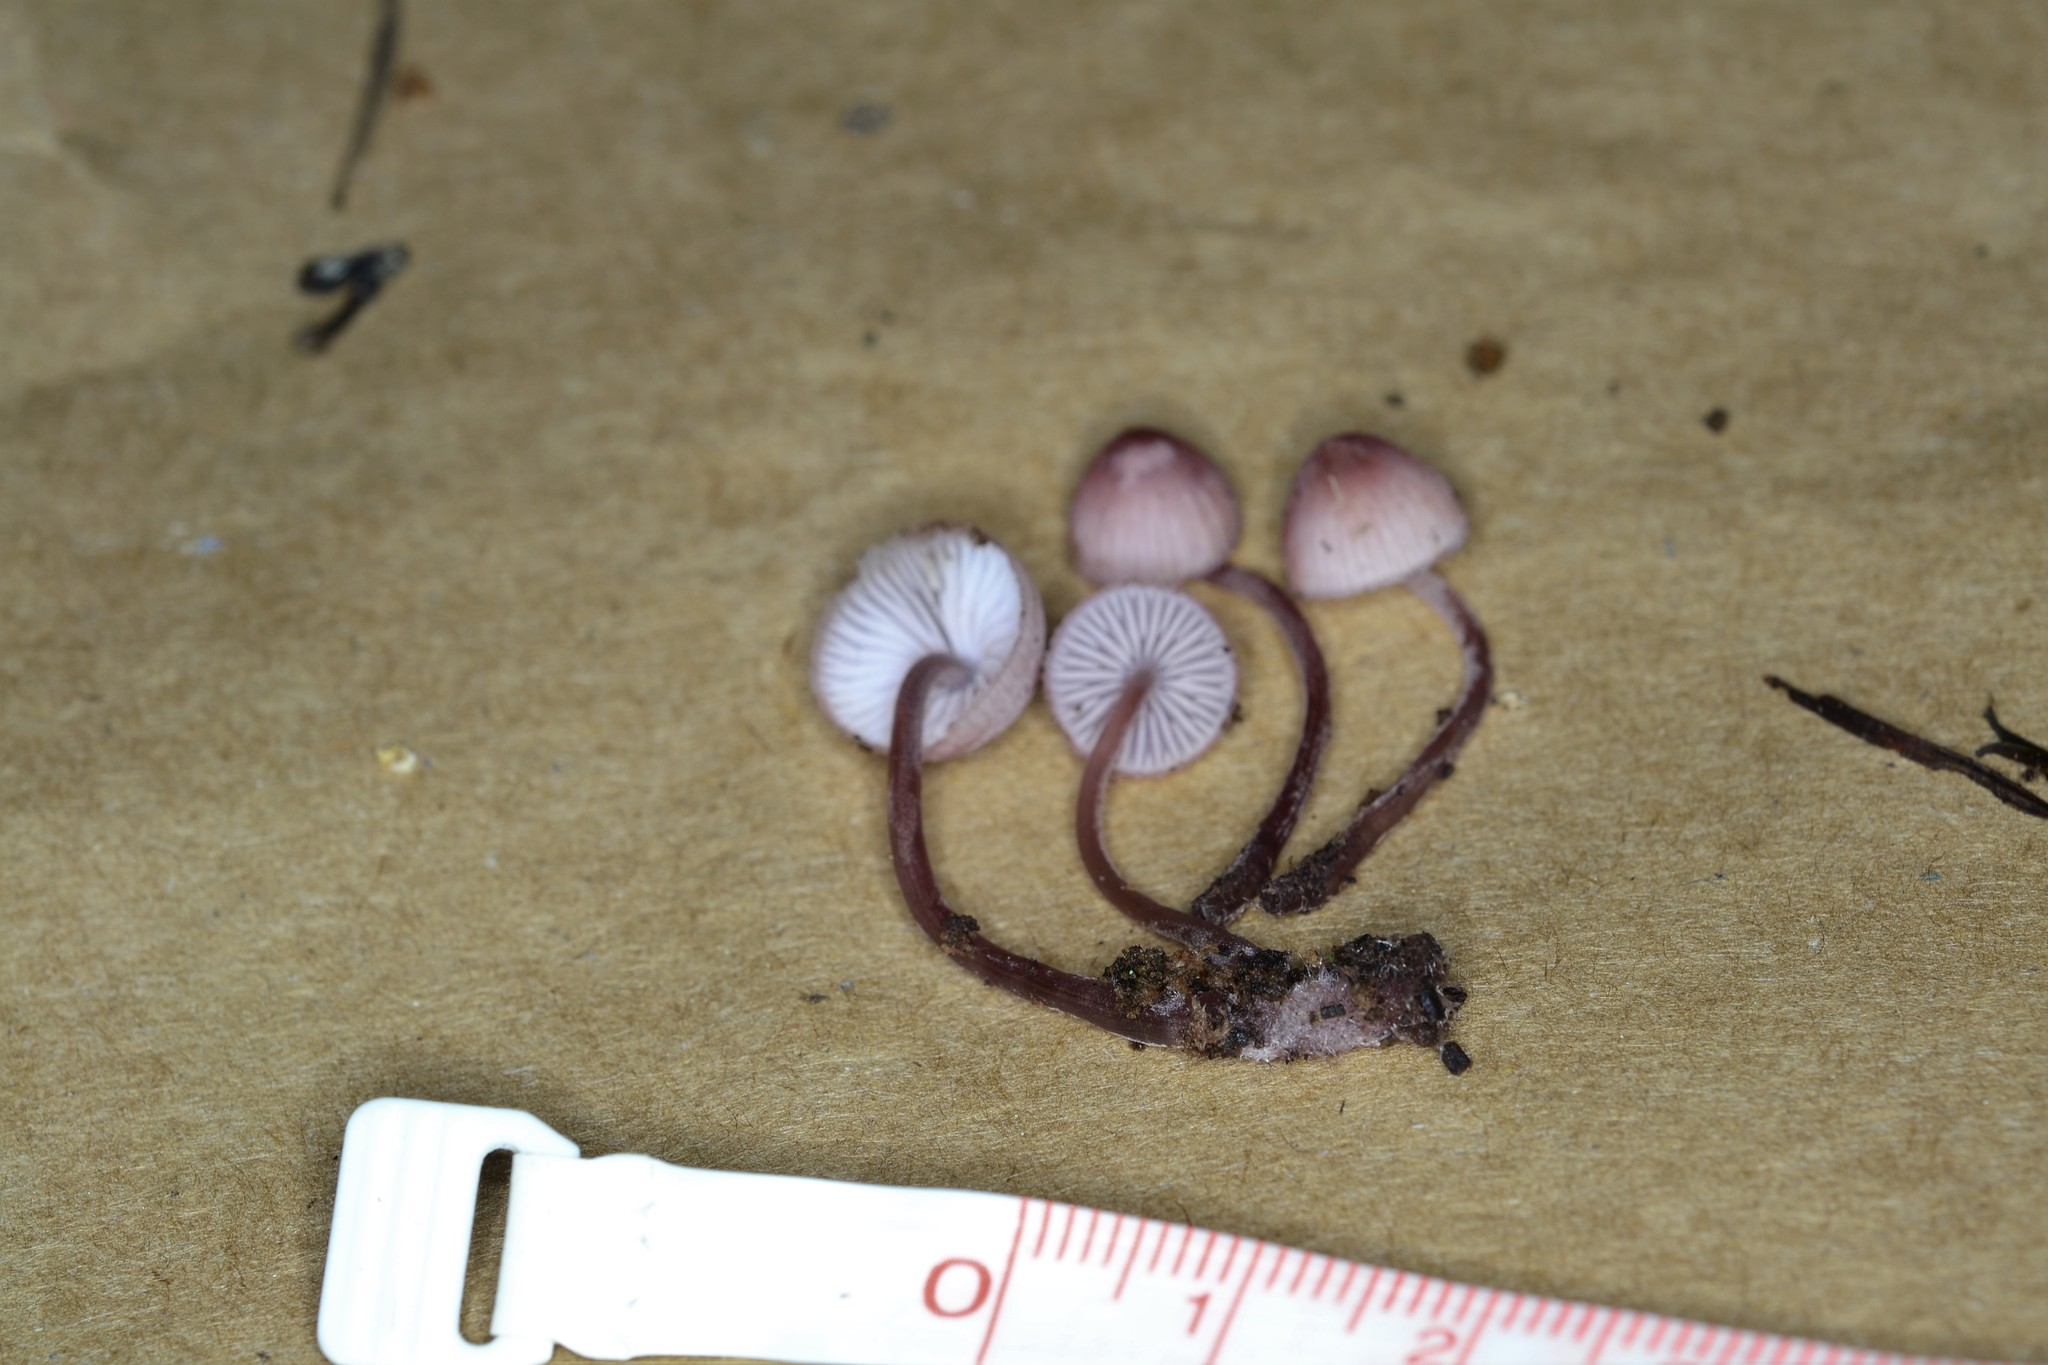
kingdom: Fungi
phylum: Basidiomycota
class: Agaricomycetes
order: Agaricales
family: Mycenaceae
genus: Mycena
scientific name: Mycena haematopus
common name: Burgundydrop bonnet
